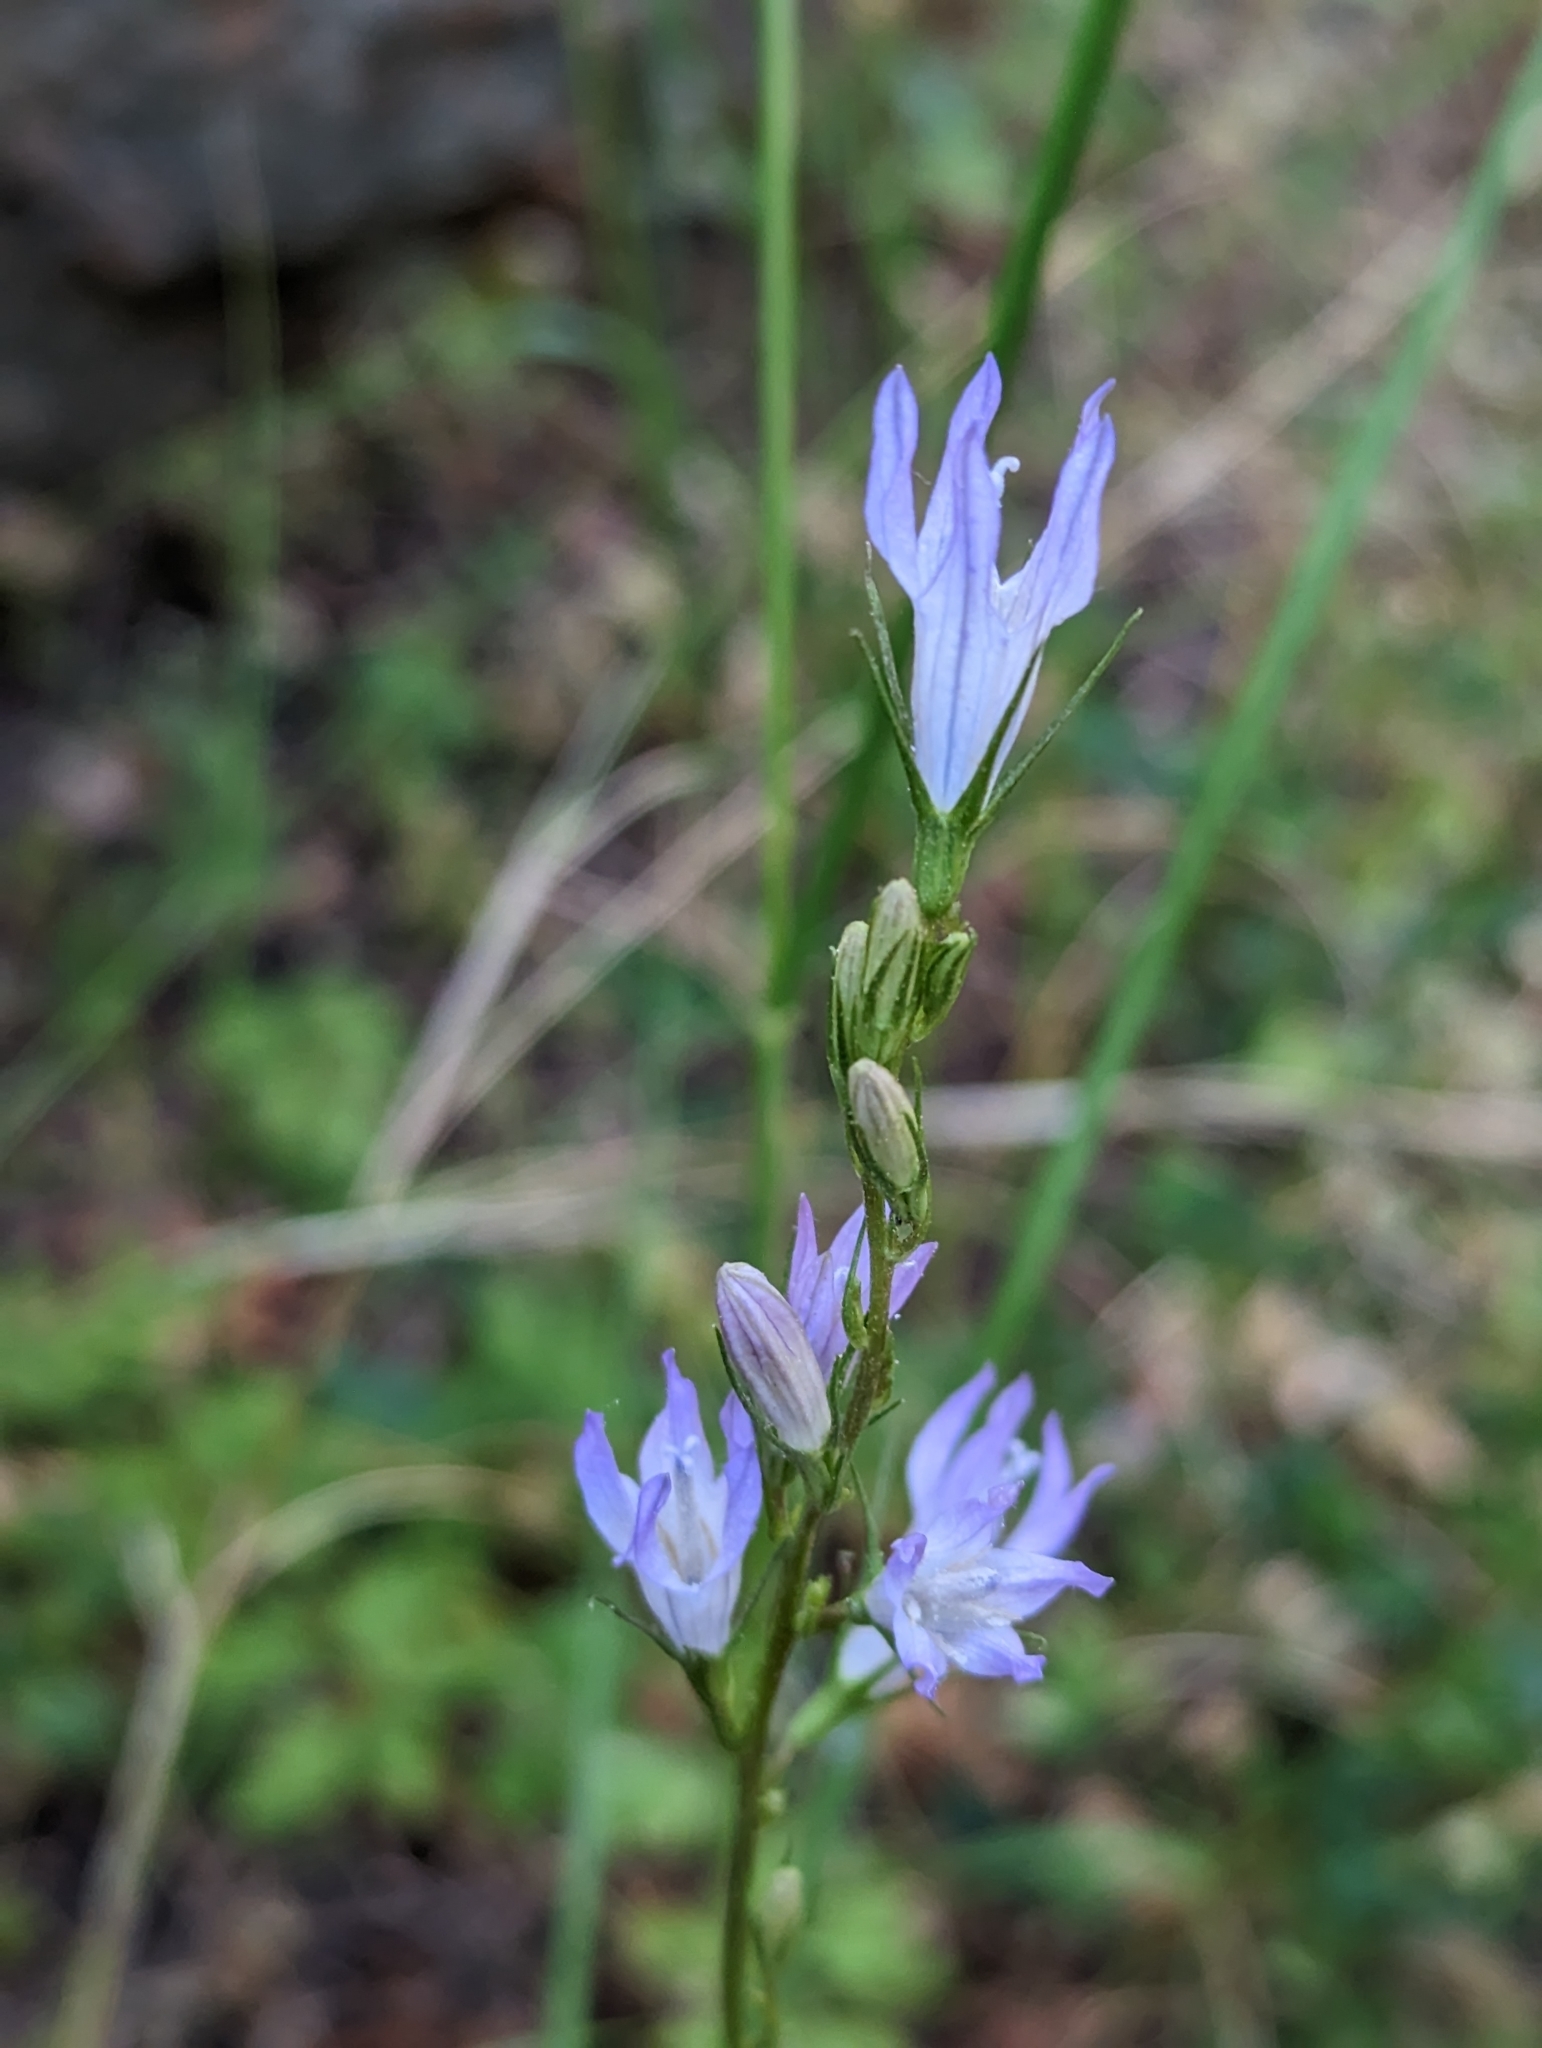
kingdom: Plantae
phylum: Tracheophyta
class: Magnoliopsida
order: Asterales
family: Campanulaceae
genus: Campanula
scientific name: Campanula rapunculus
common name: Rampion bellflower
